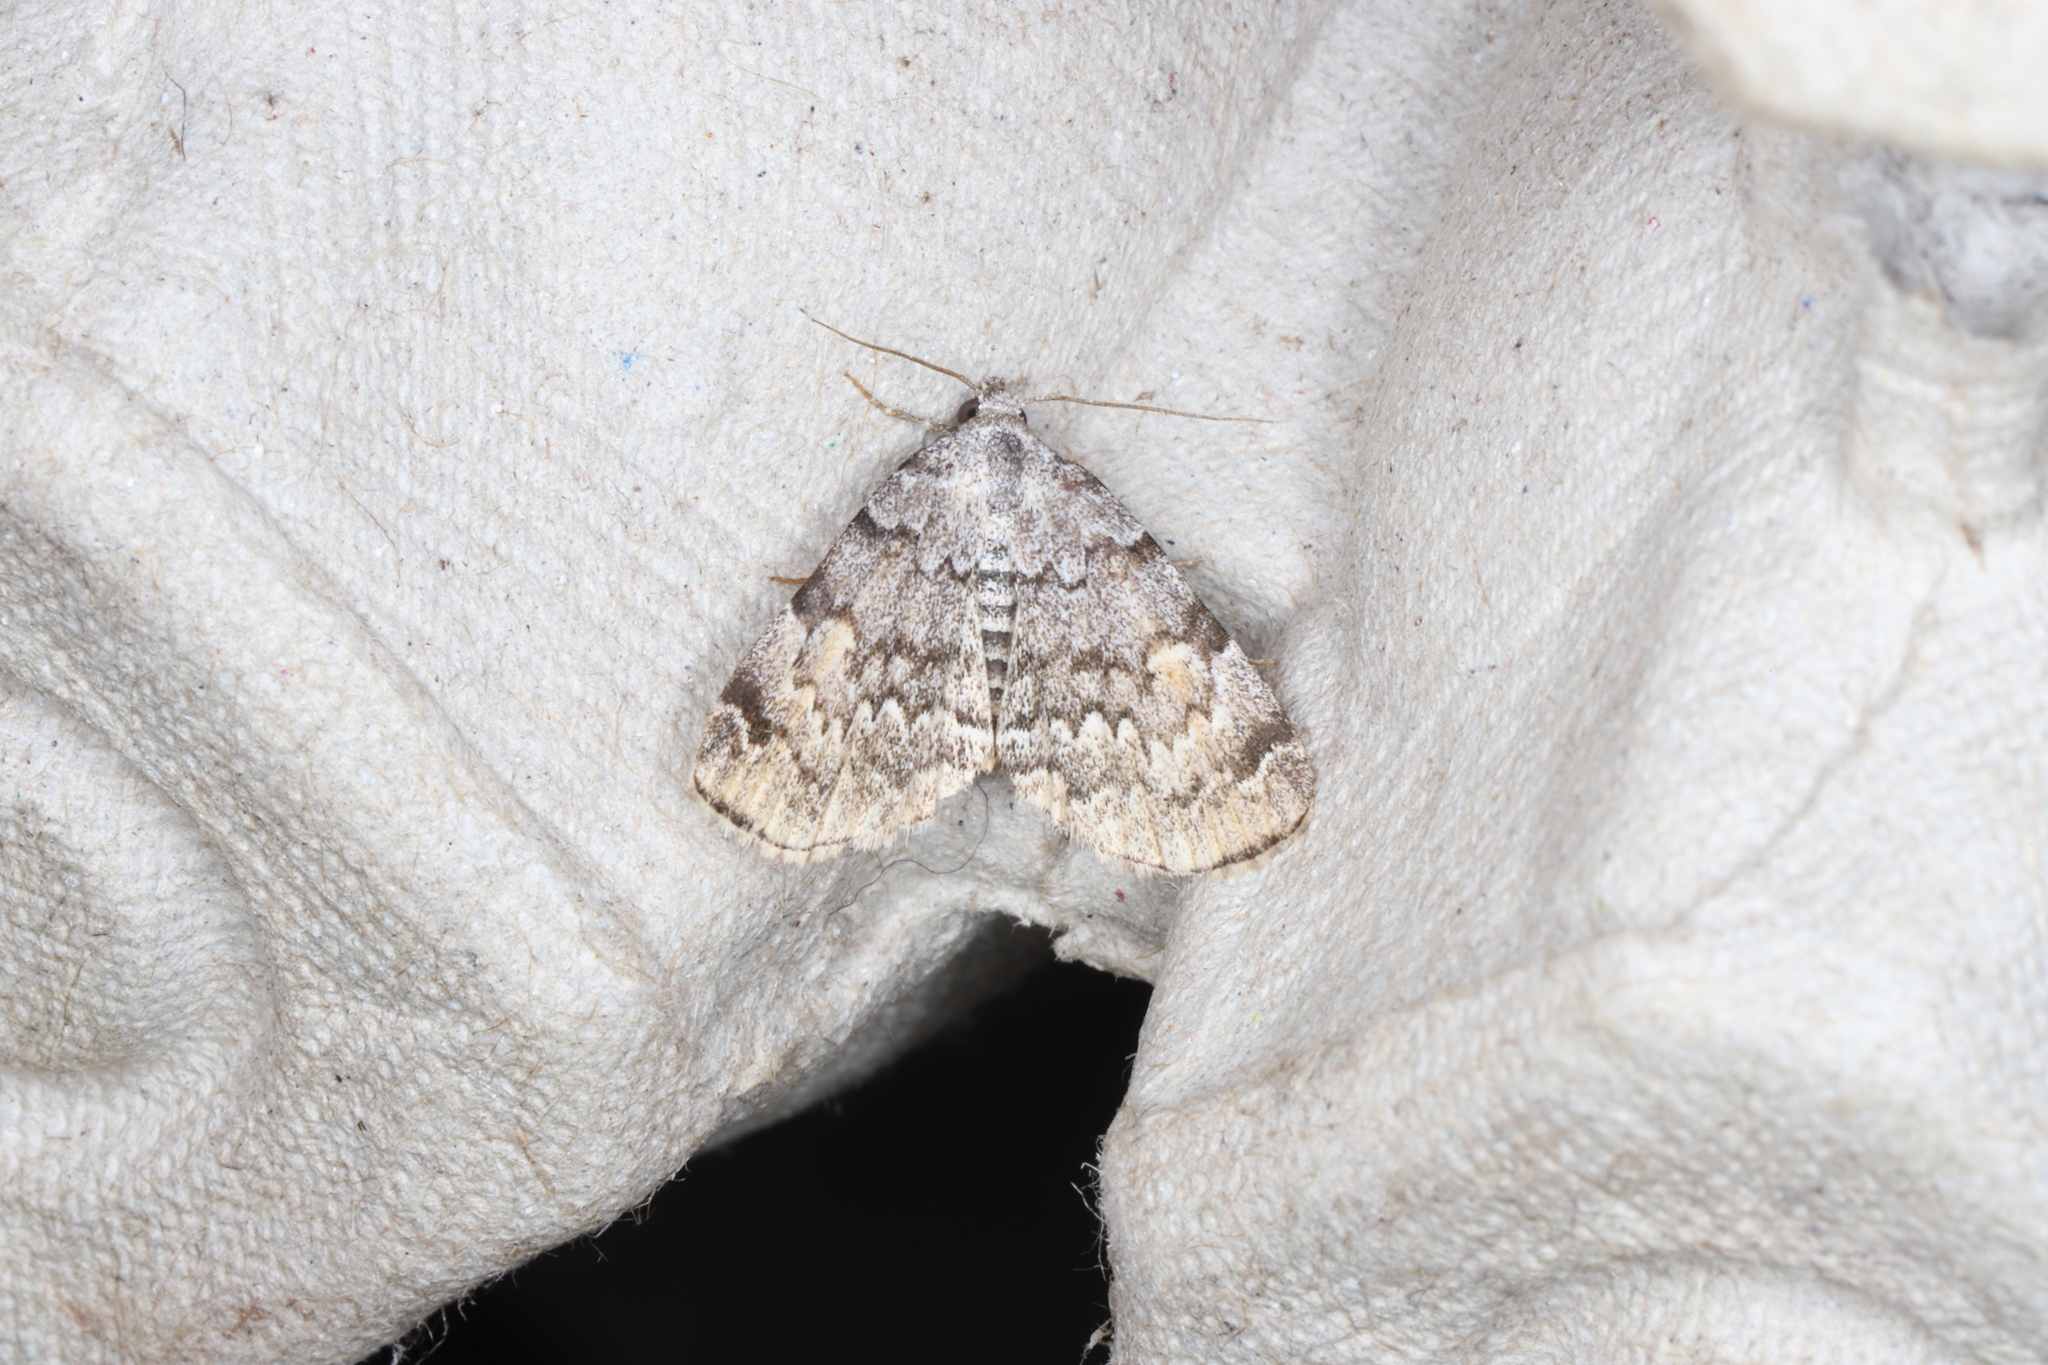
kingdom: Animalia
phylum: Arthropoda
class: Insecta
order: Lepidoptera
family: Erebidae
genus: Idia
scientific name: Idia americalis
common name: American idia moth
